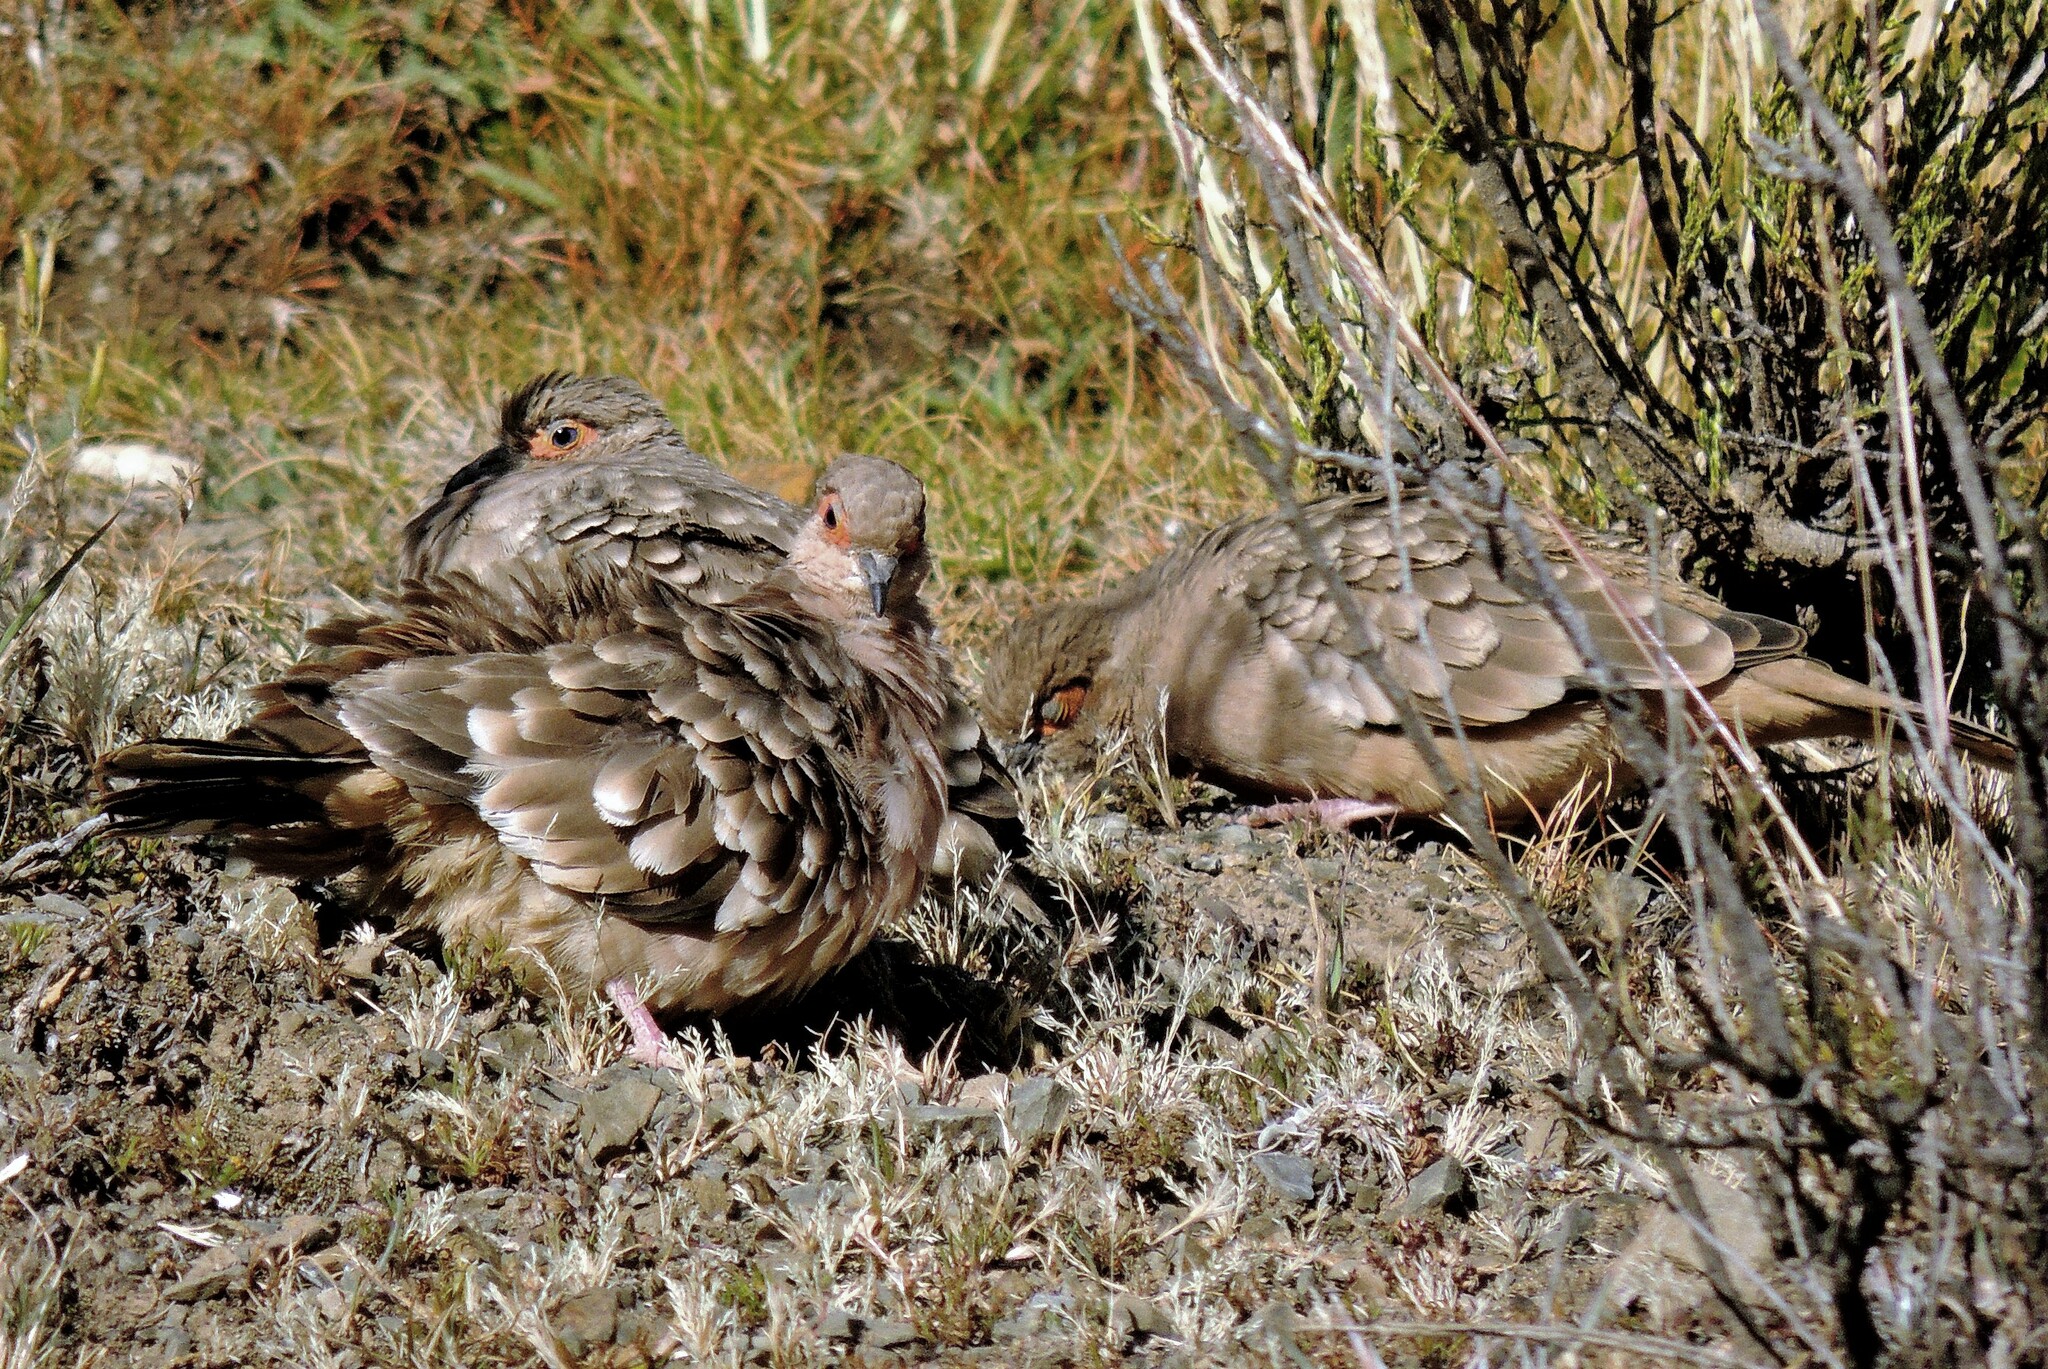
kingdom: Animalia
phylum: Chordata
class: Aves
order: Columbiformes
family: Columbidae
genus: Metriopelia
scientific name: Metriopelia ceciliae
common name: Bare-faced ground dove
